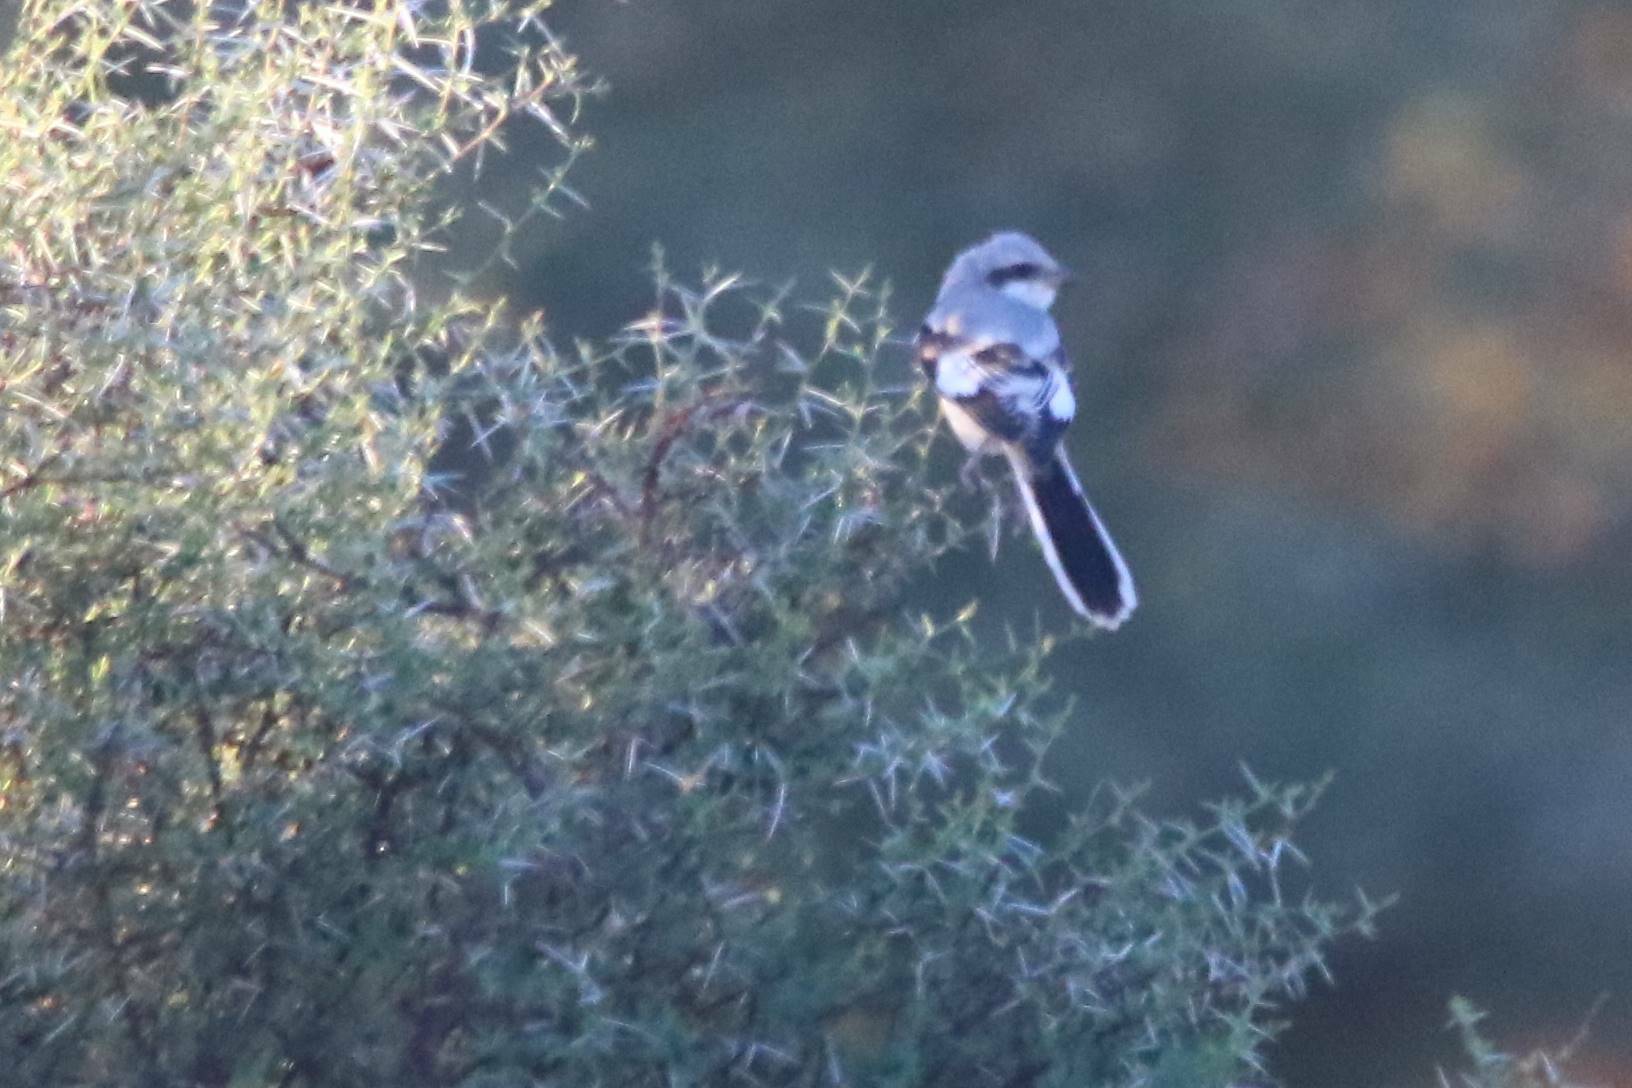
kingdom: Animalia
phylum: Chordata
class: Aves
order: Passeriformes
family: Laniidae
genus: Lanius
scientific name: Lanius excubitor
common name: Great grey shrike
